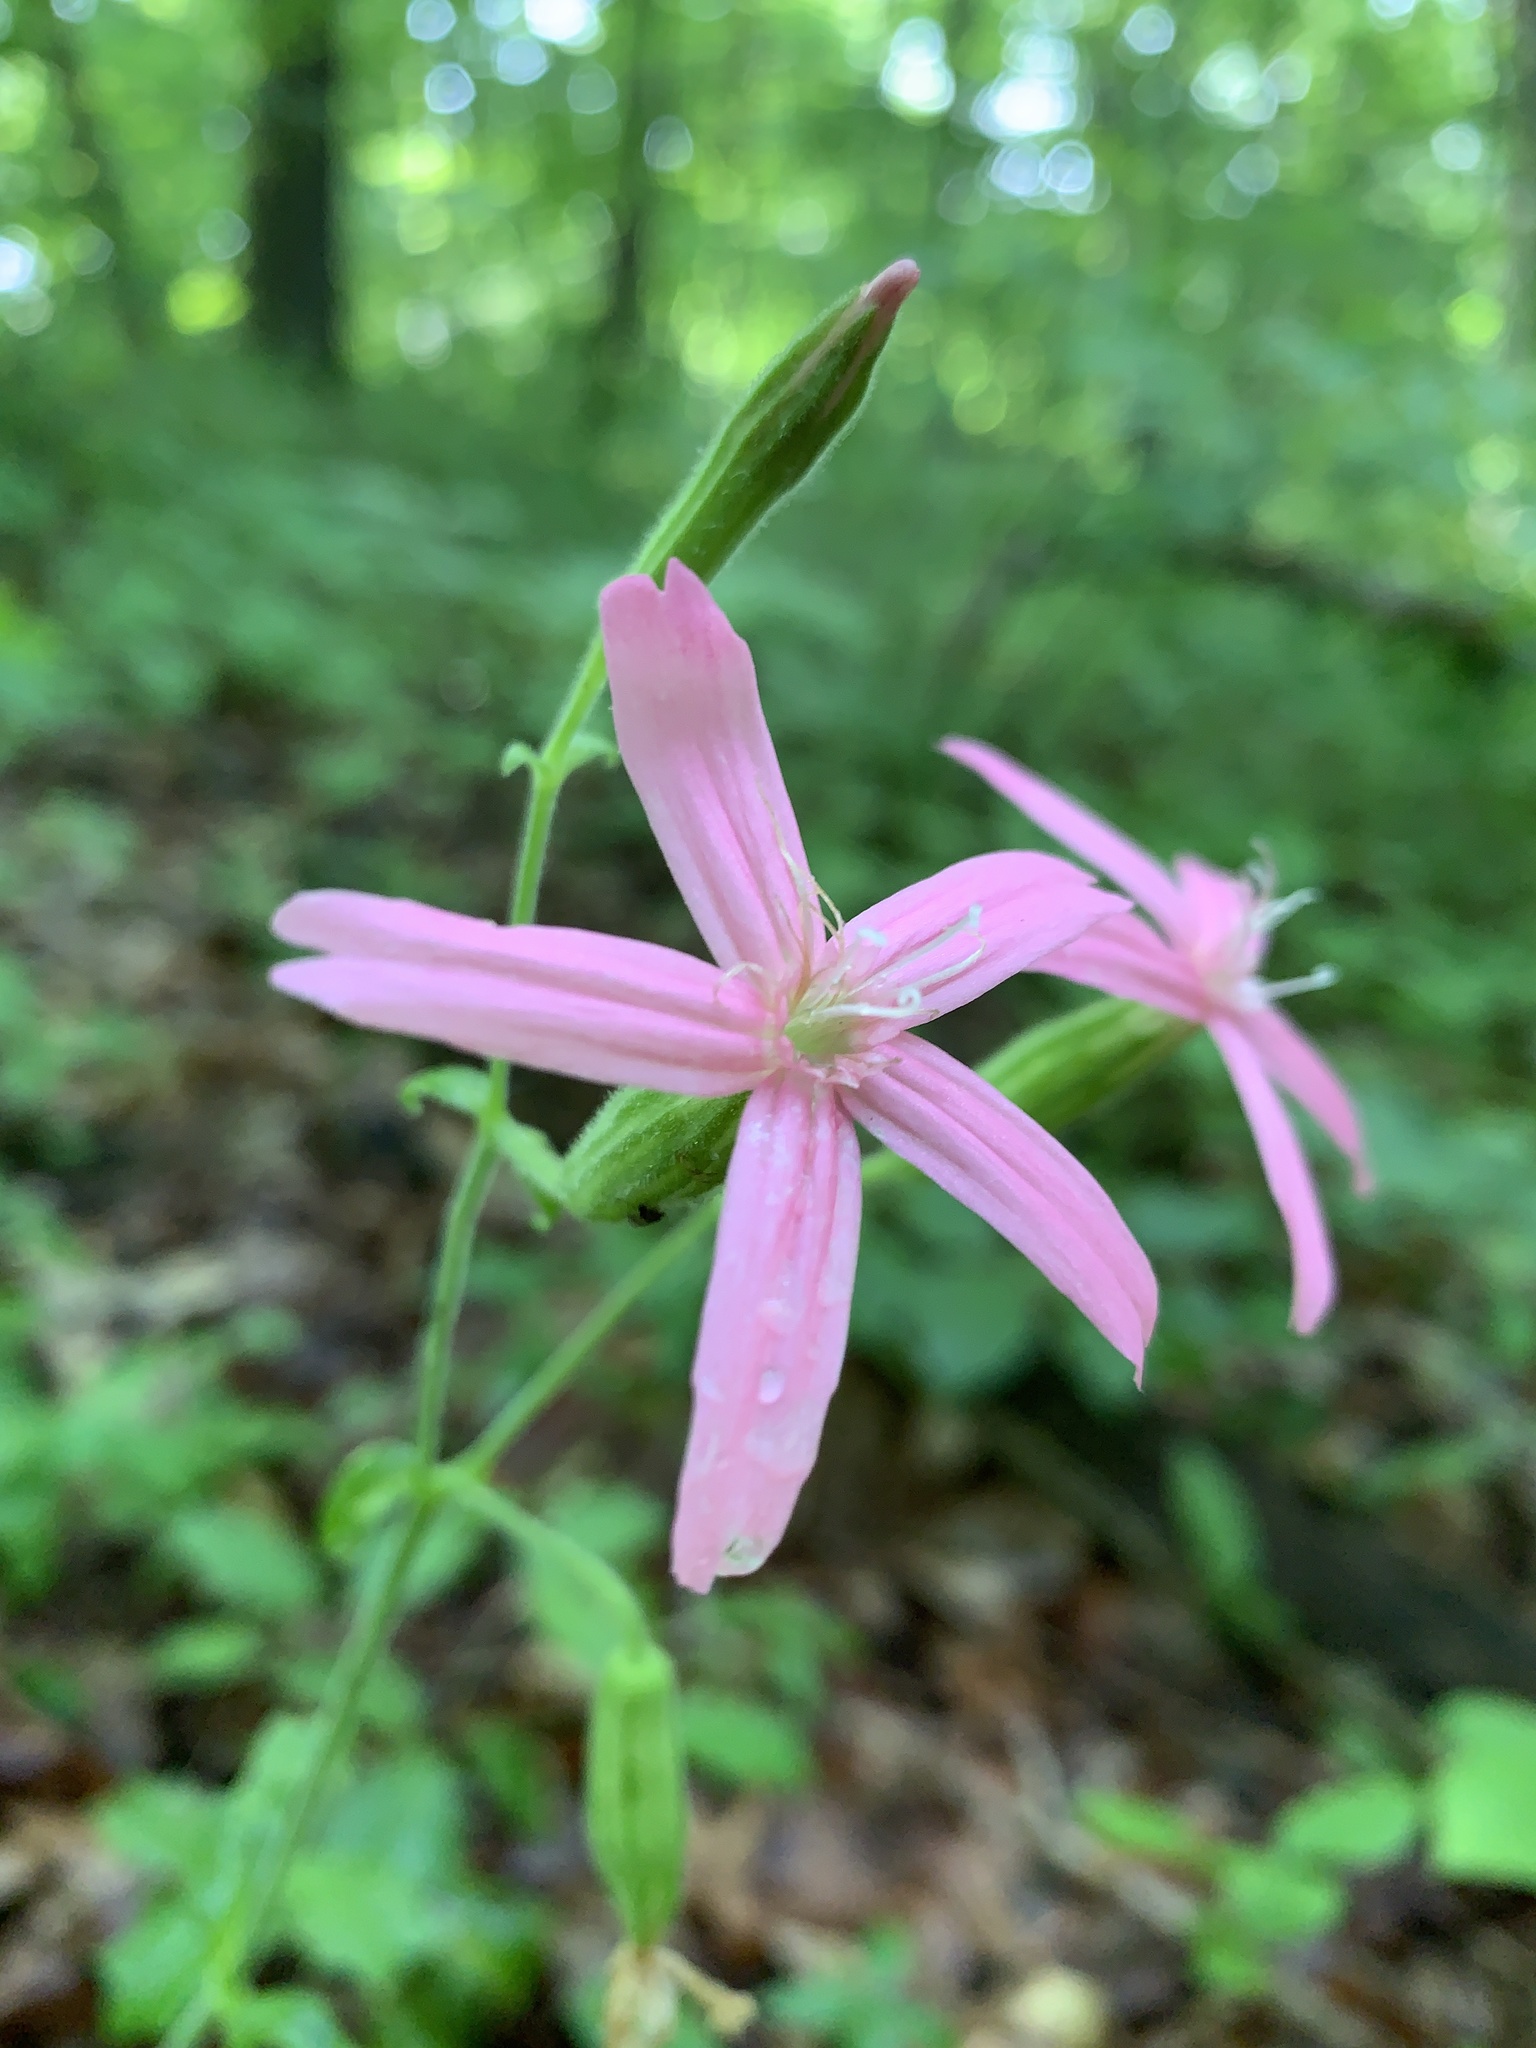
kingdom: Plantae
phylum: Tracheophyta
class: Magnoliopsida
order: Caryophyllales
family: Caryophyllaceae
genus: Silene
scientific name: Silene virginica
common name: Fire-pink
